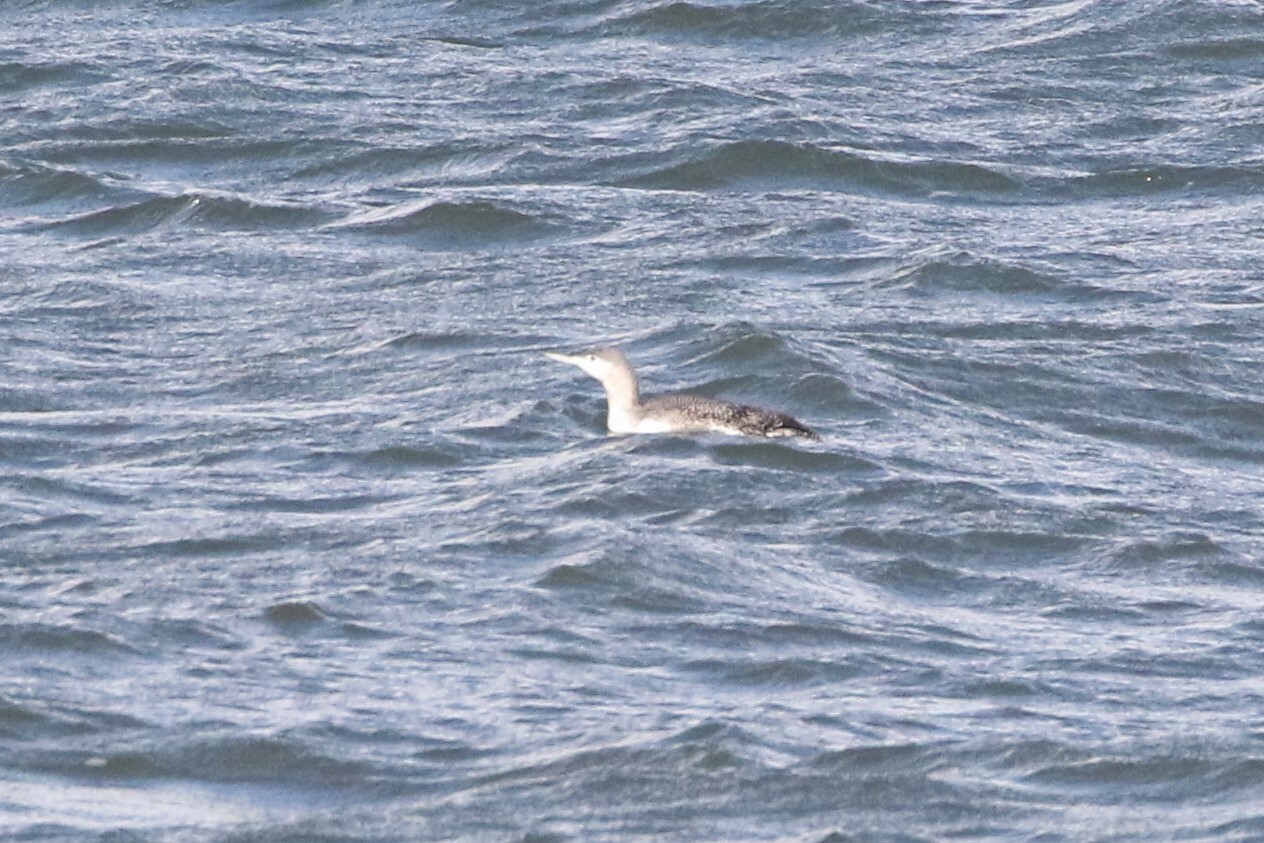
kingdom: Animalia
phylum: Chordata
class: Aves
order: Gaviiformes
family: Gaviidae
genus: Gavia
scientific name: Gavia stellata
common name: Red-throated loon
